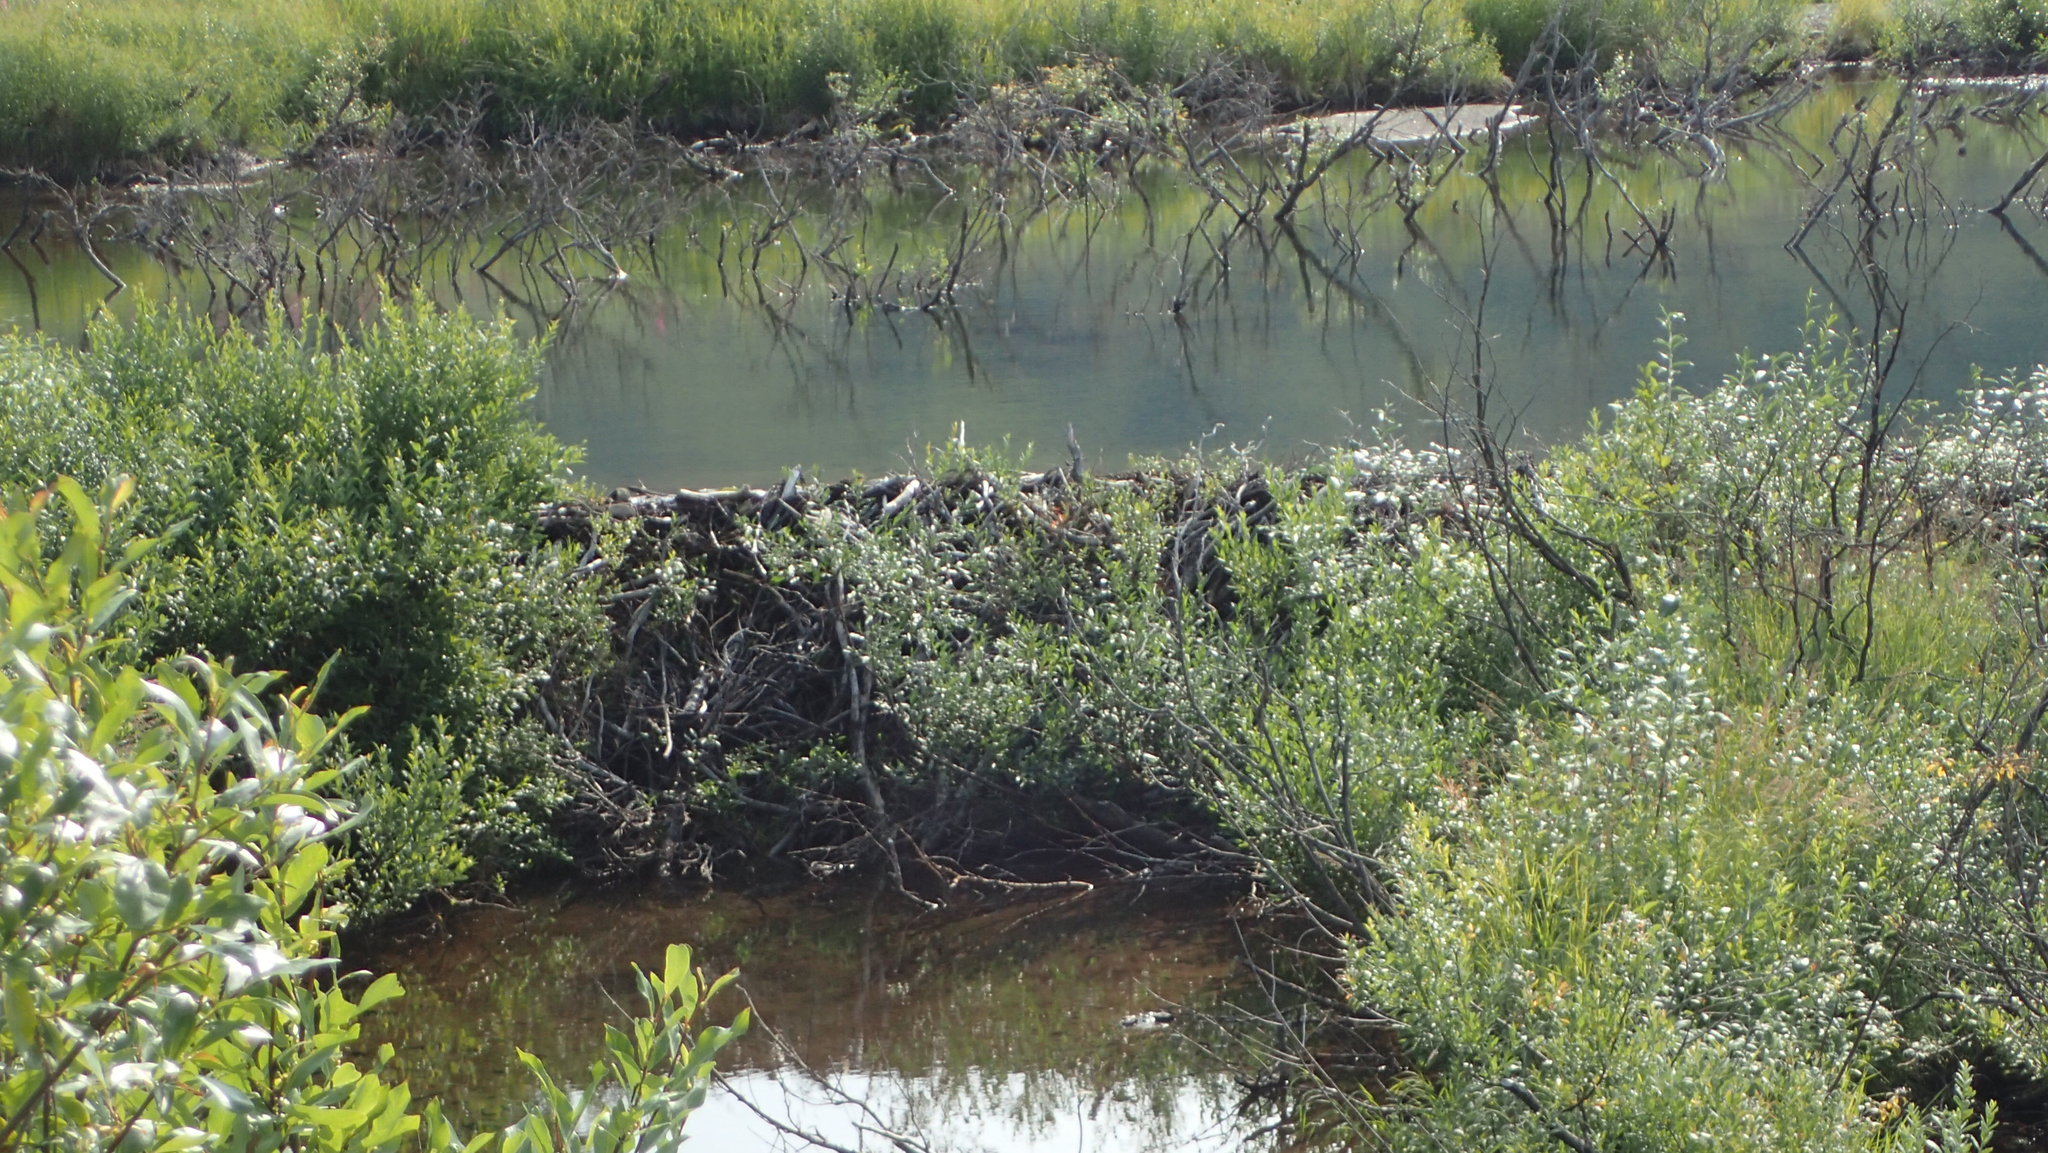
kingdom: Animalia
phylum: Chordata
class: Mammalia
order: Rodentia
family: Castoridae
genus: Castor
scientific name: Castor canadensis
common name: American beaver
